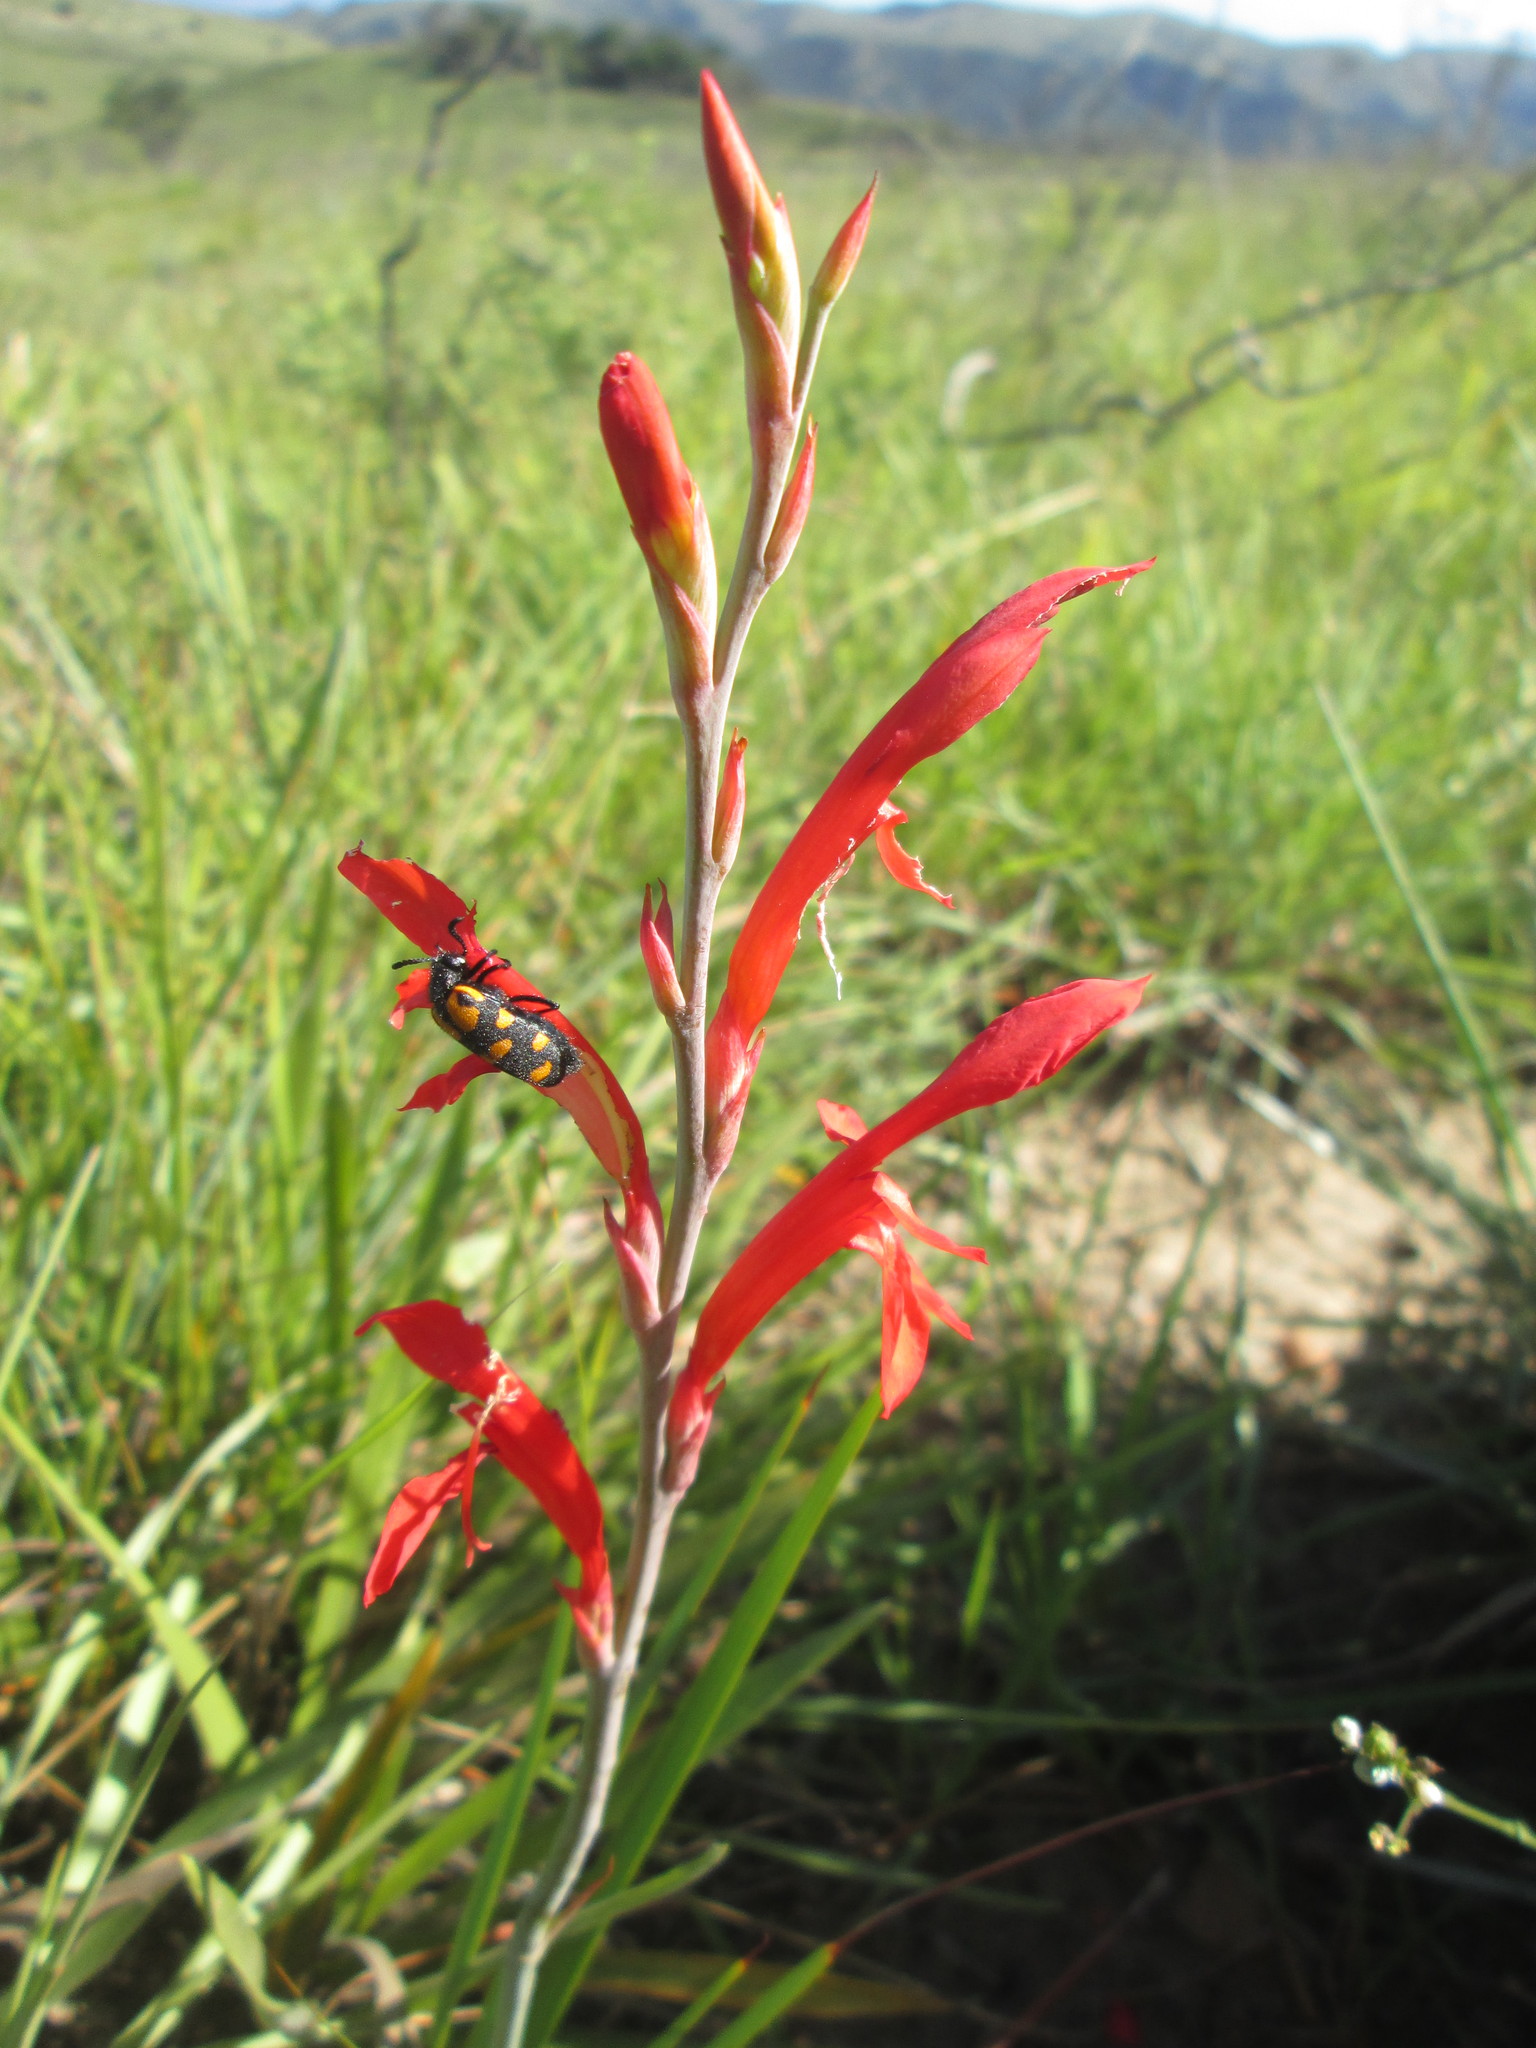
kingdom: Plantae
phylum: Tracheophyta
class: Liliopsida
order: Asparagales
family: Iridaceae
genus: Tritoniopsis
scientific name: Tritoniopsis caffra
